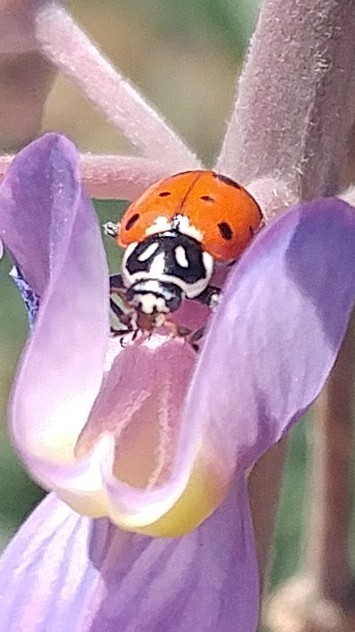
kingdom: Animalia
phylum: Arthropoda
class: Insecta
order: Coleoptera
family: Coccinellidae
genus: Hippodamia
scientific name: Hippodamia convergens
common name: Convergent lady beetle
